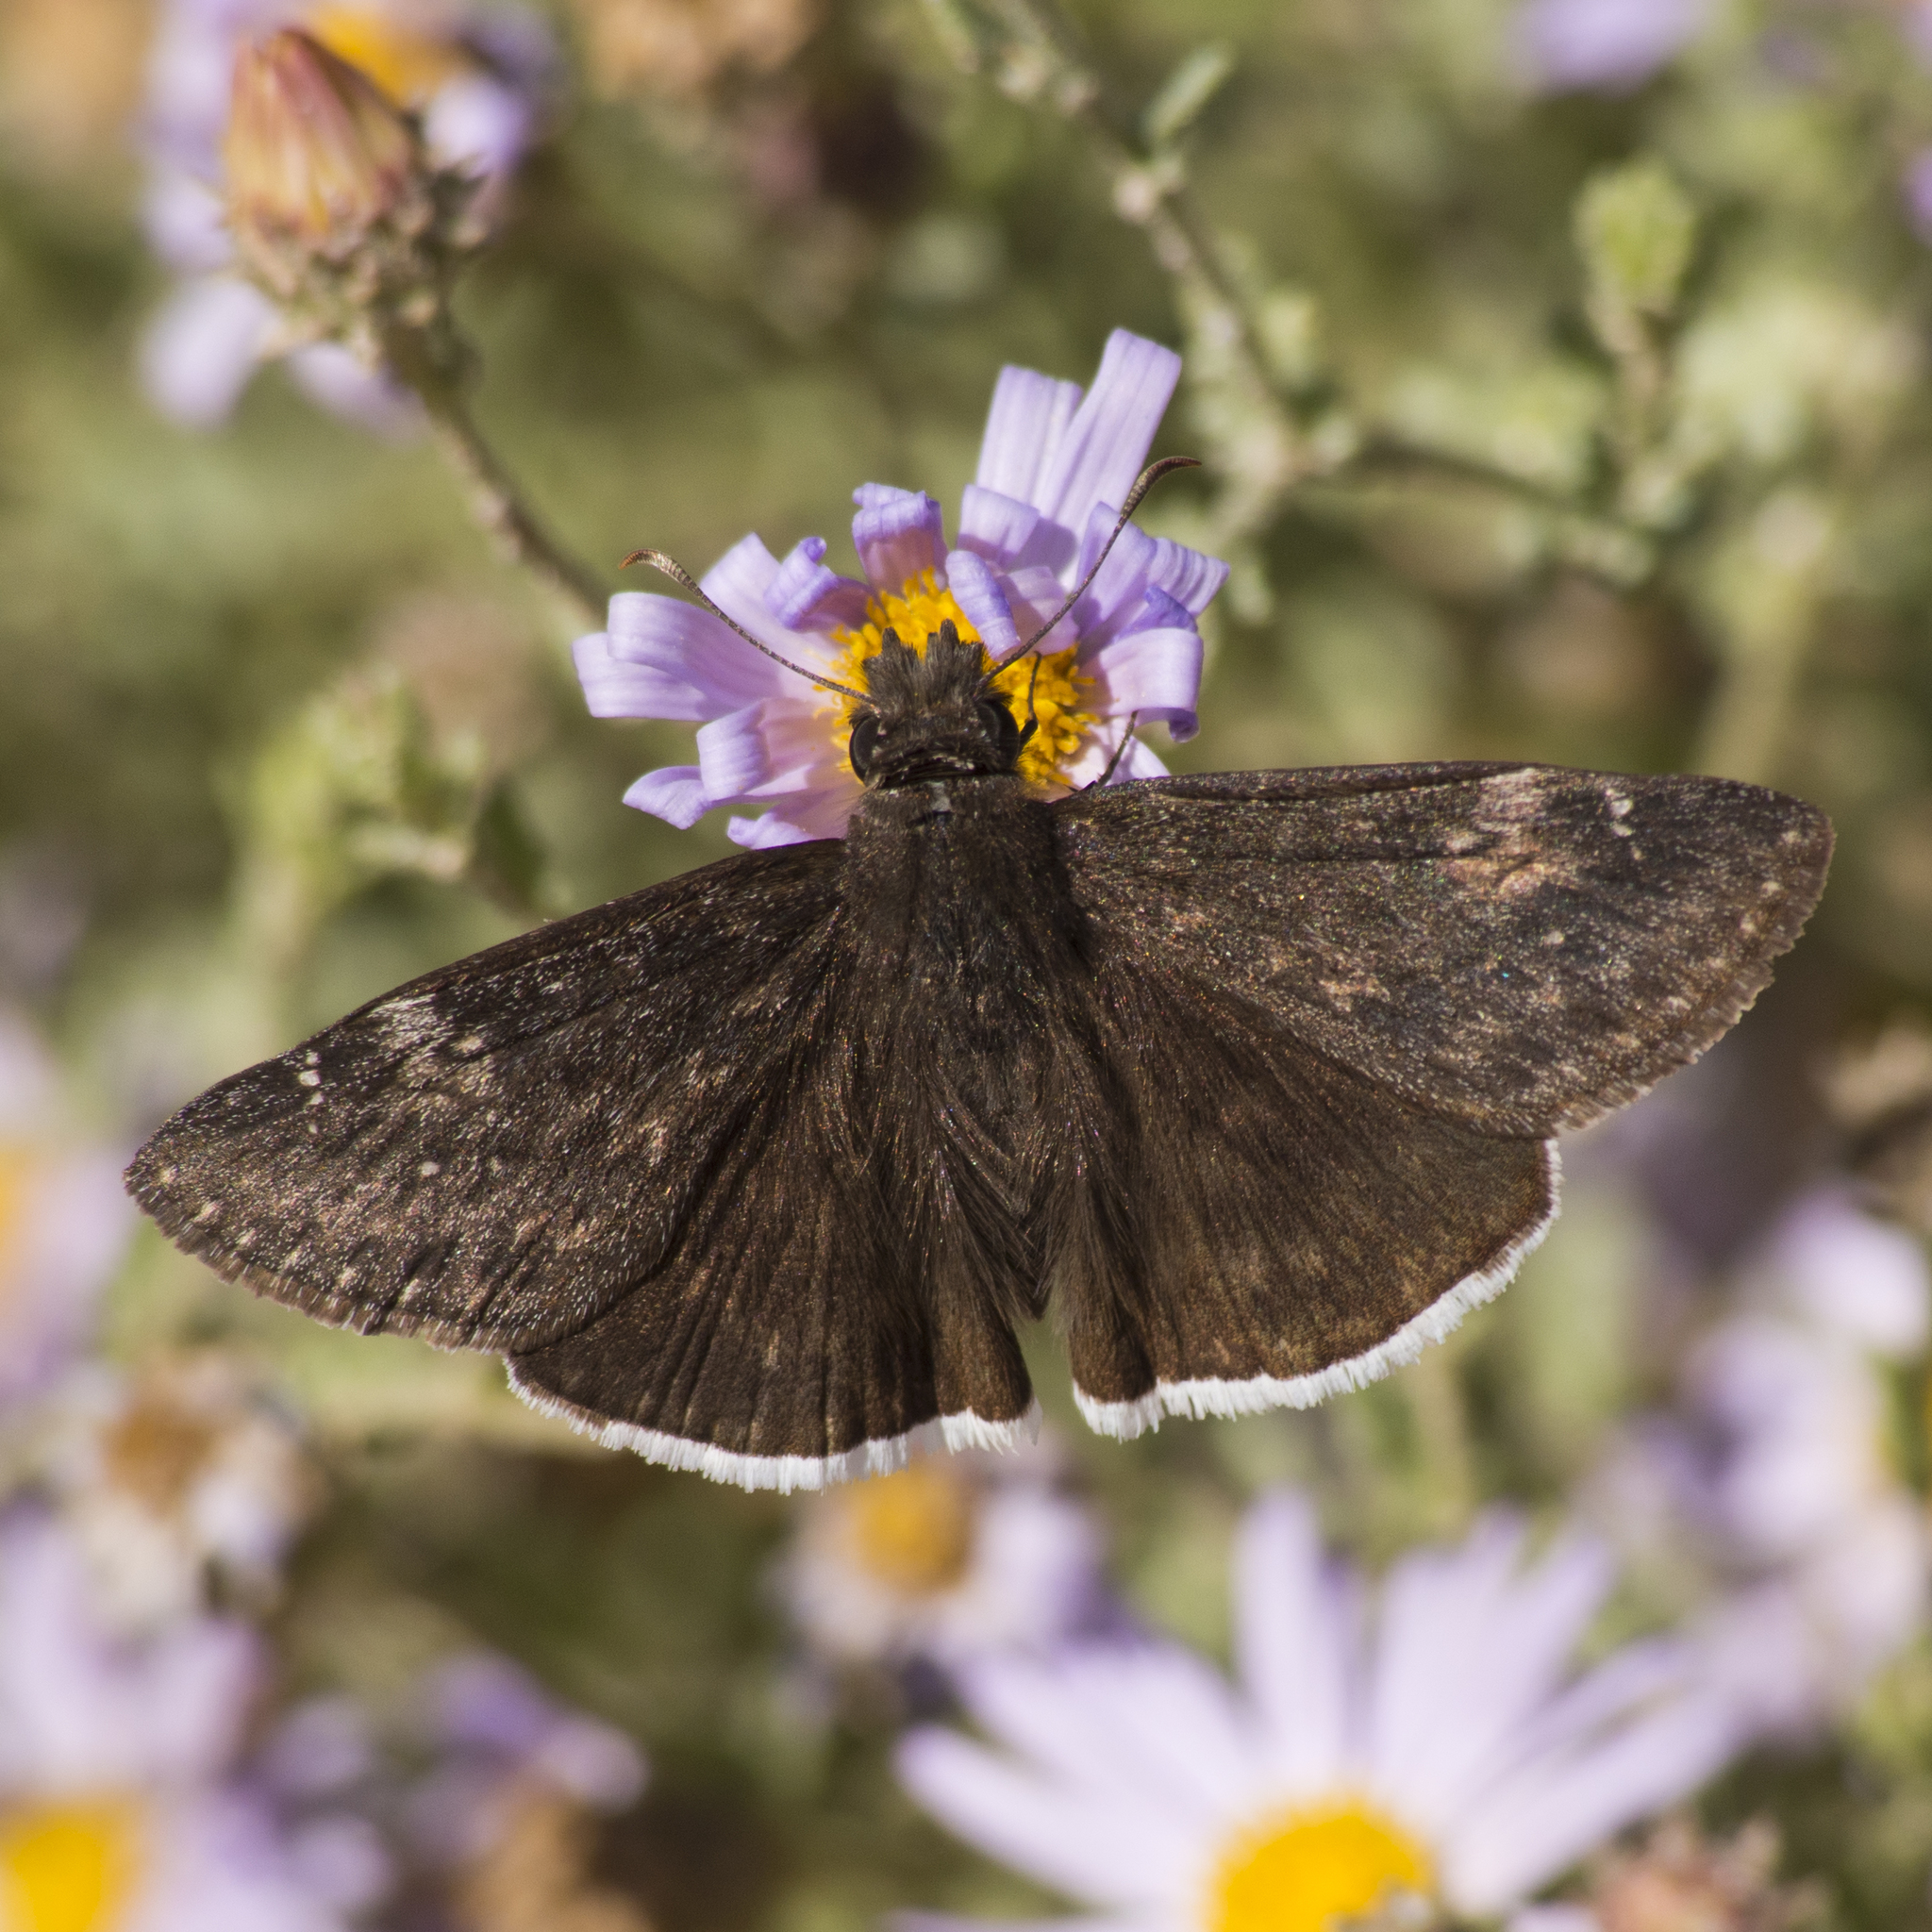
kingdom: Animalia
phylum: Arthropoda
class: Insecta
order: Lepidoptera
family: Hesperiidae
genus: Erynnis
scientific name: Erynnis funeralis
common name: Funereal duskywing
